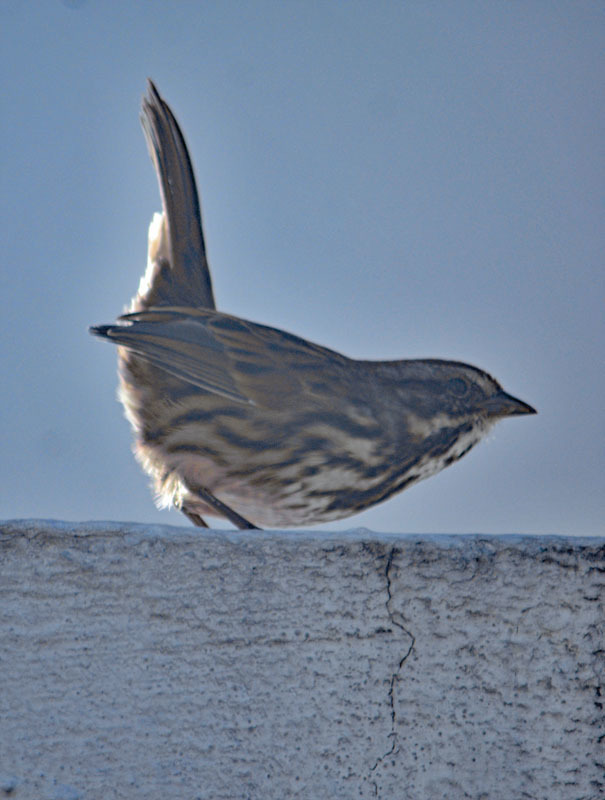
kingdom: Animalia
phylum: Chordata
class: Aves
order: Passeriformes
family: Passerellidae
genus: Melospiza
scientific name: Melospiza melodia
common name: Song sparrow
